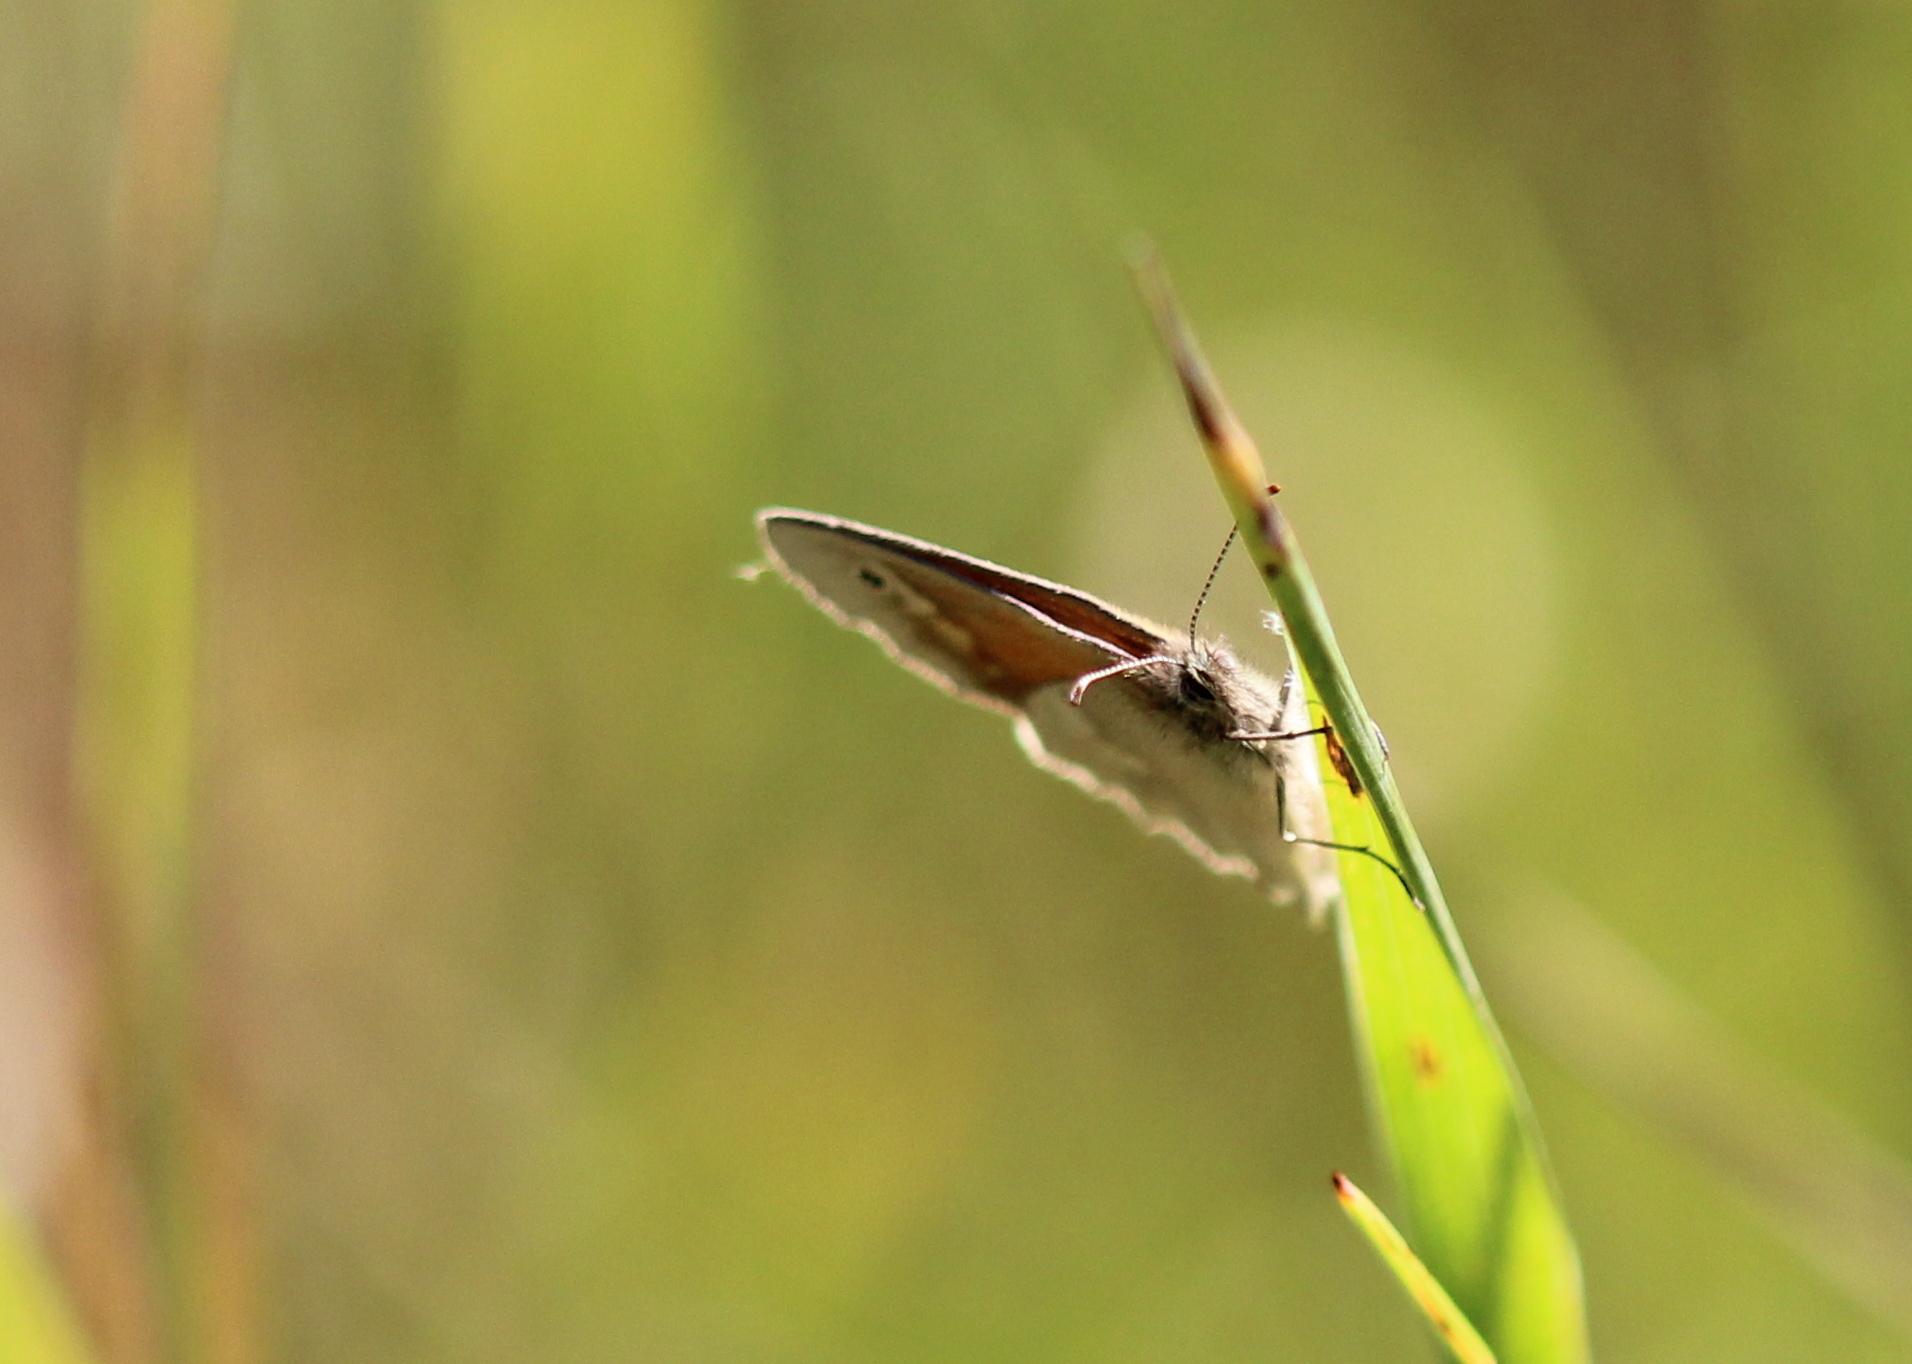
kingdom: Animalia
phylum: Arthropoda
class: Insecta
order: Lepidoptera
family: Nymphalidae
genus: Coenonympha
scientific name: Coenonympha california
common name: Common ringlet
